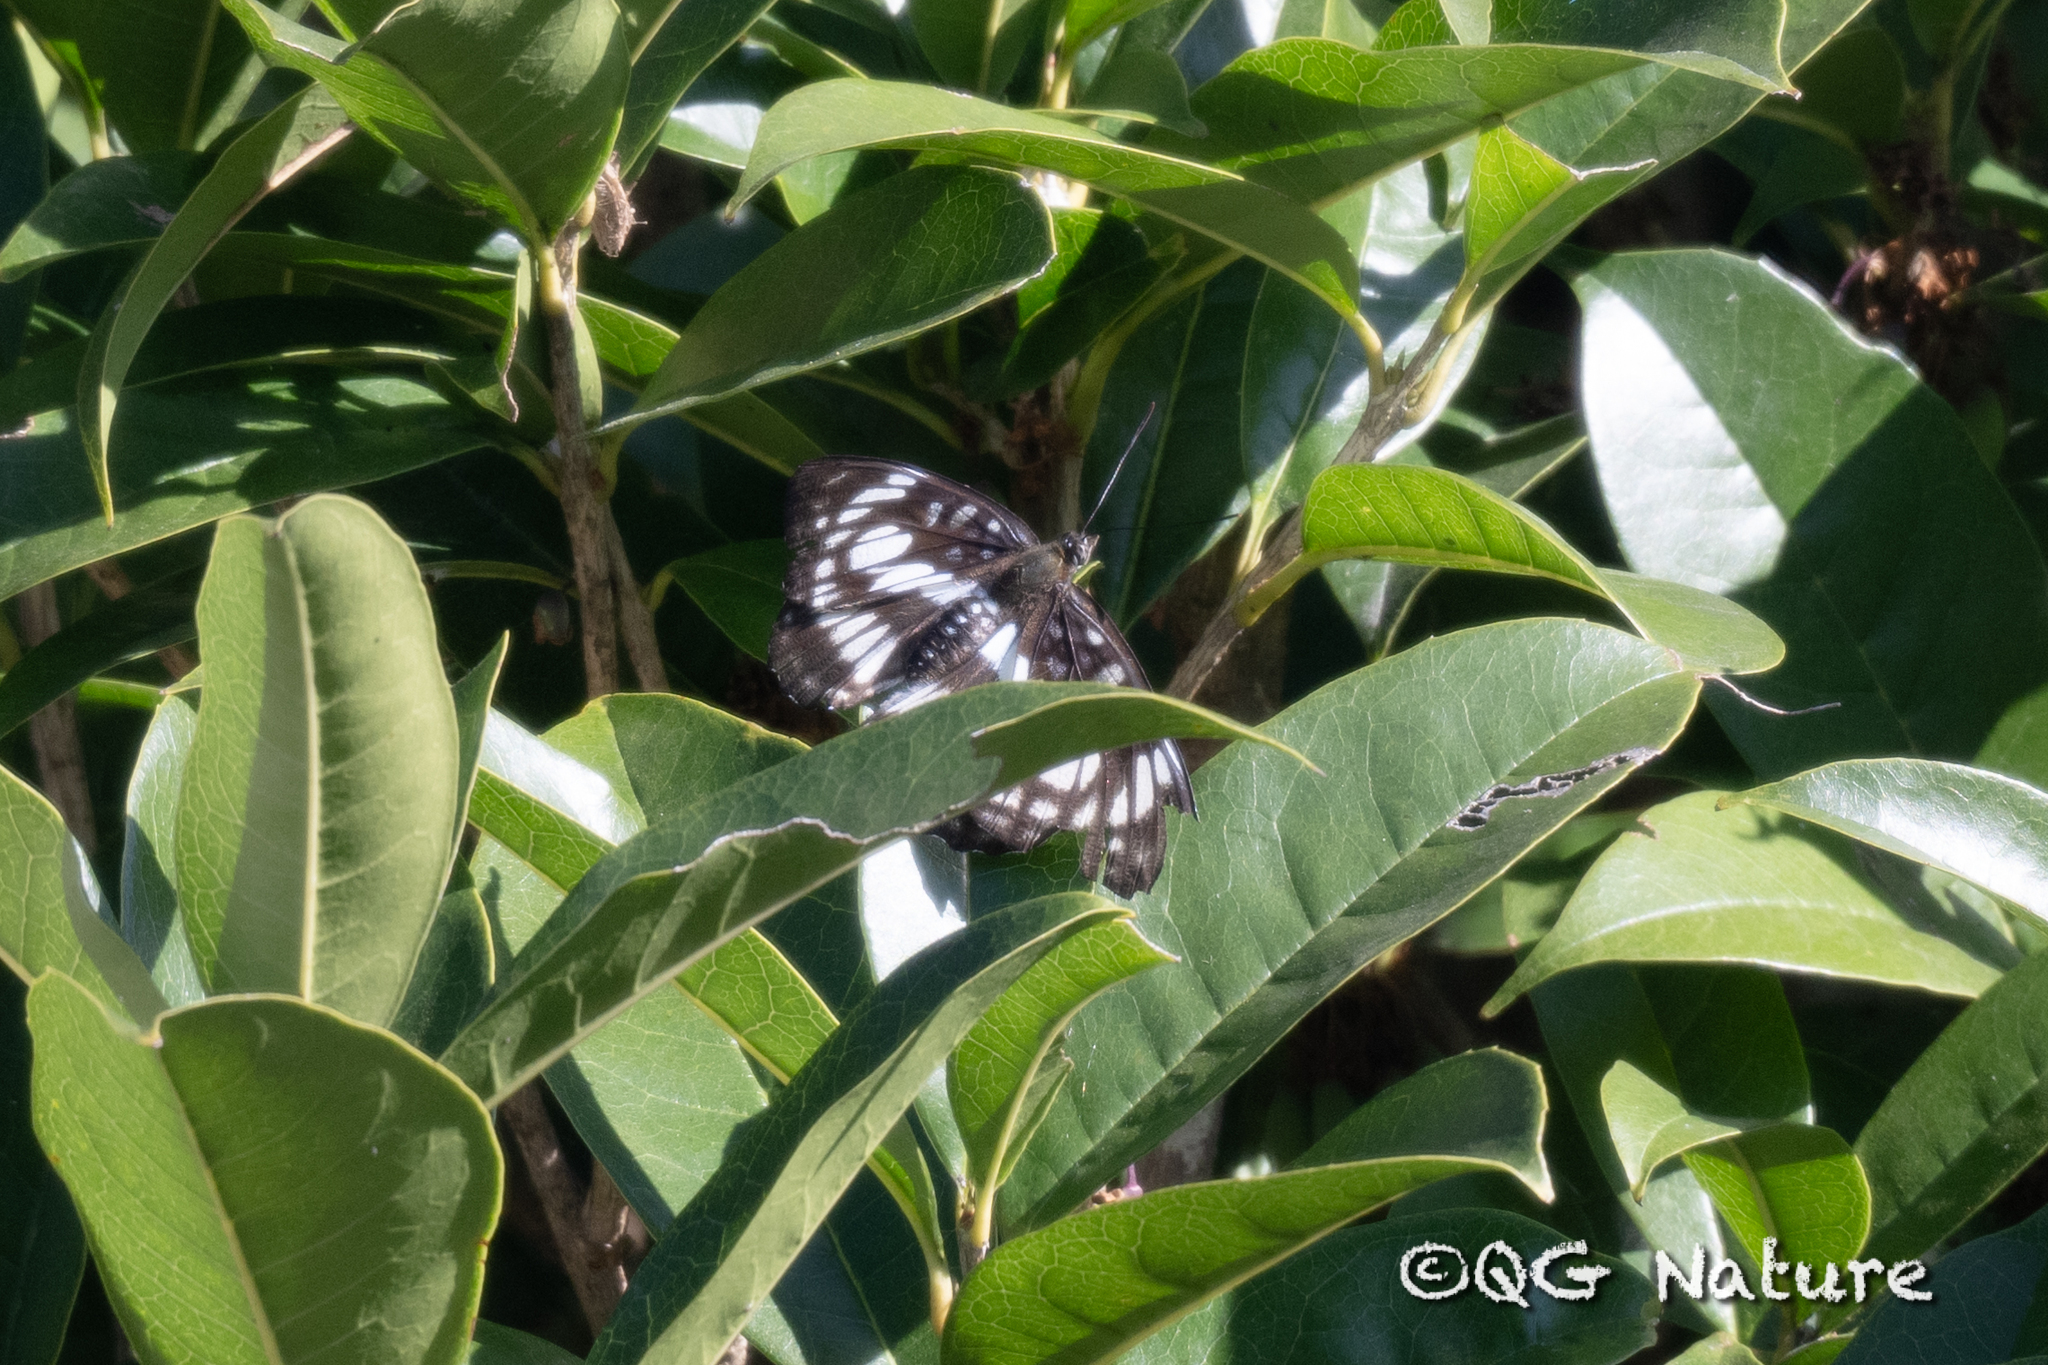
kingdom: Animalia
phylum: Arthropoda
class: Insecta
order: Lepidoptera
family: Nymphalidae
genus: Parathyma
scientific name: Parathyma ranga
